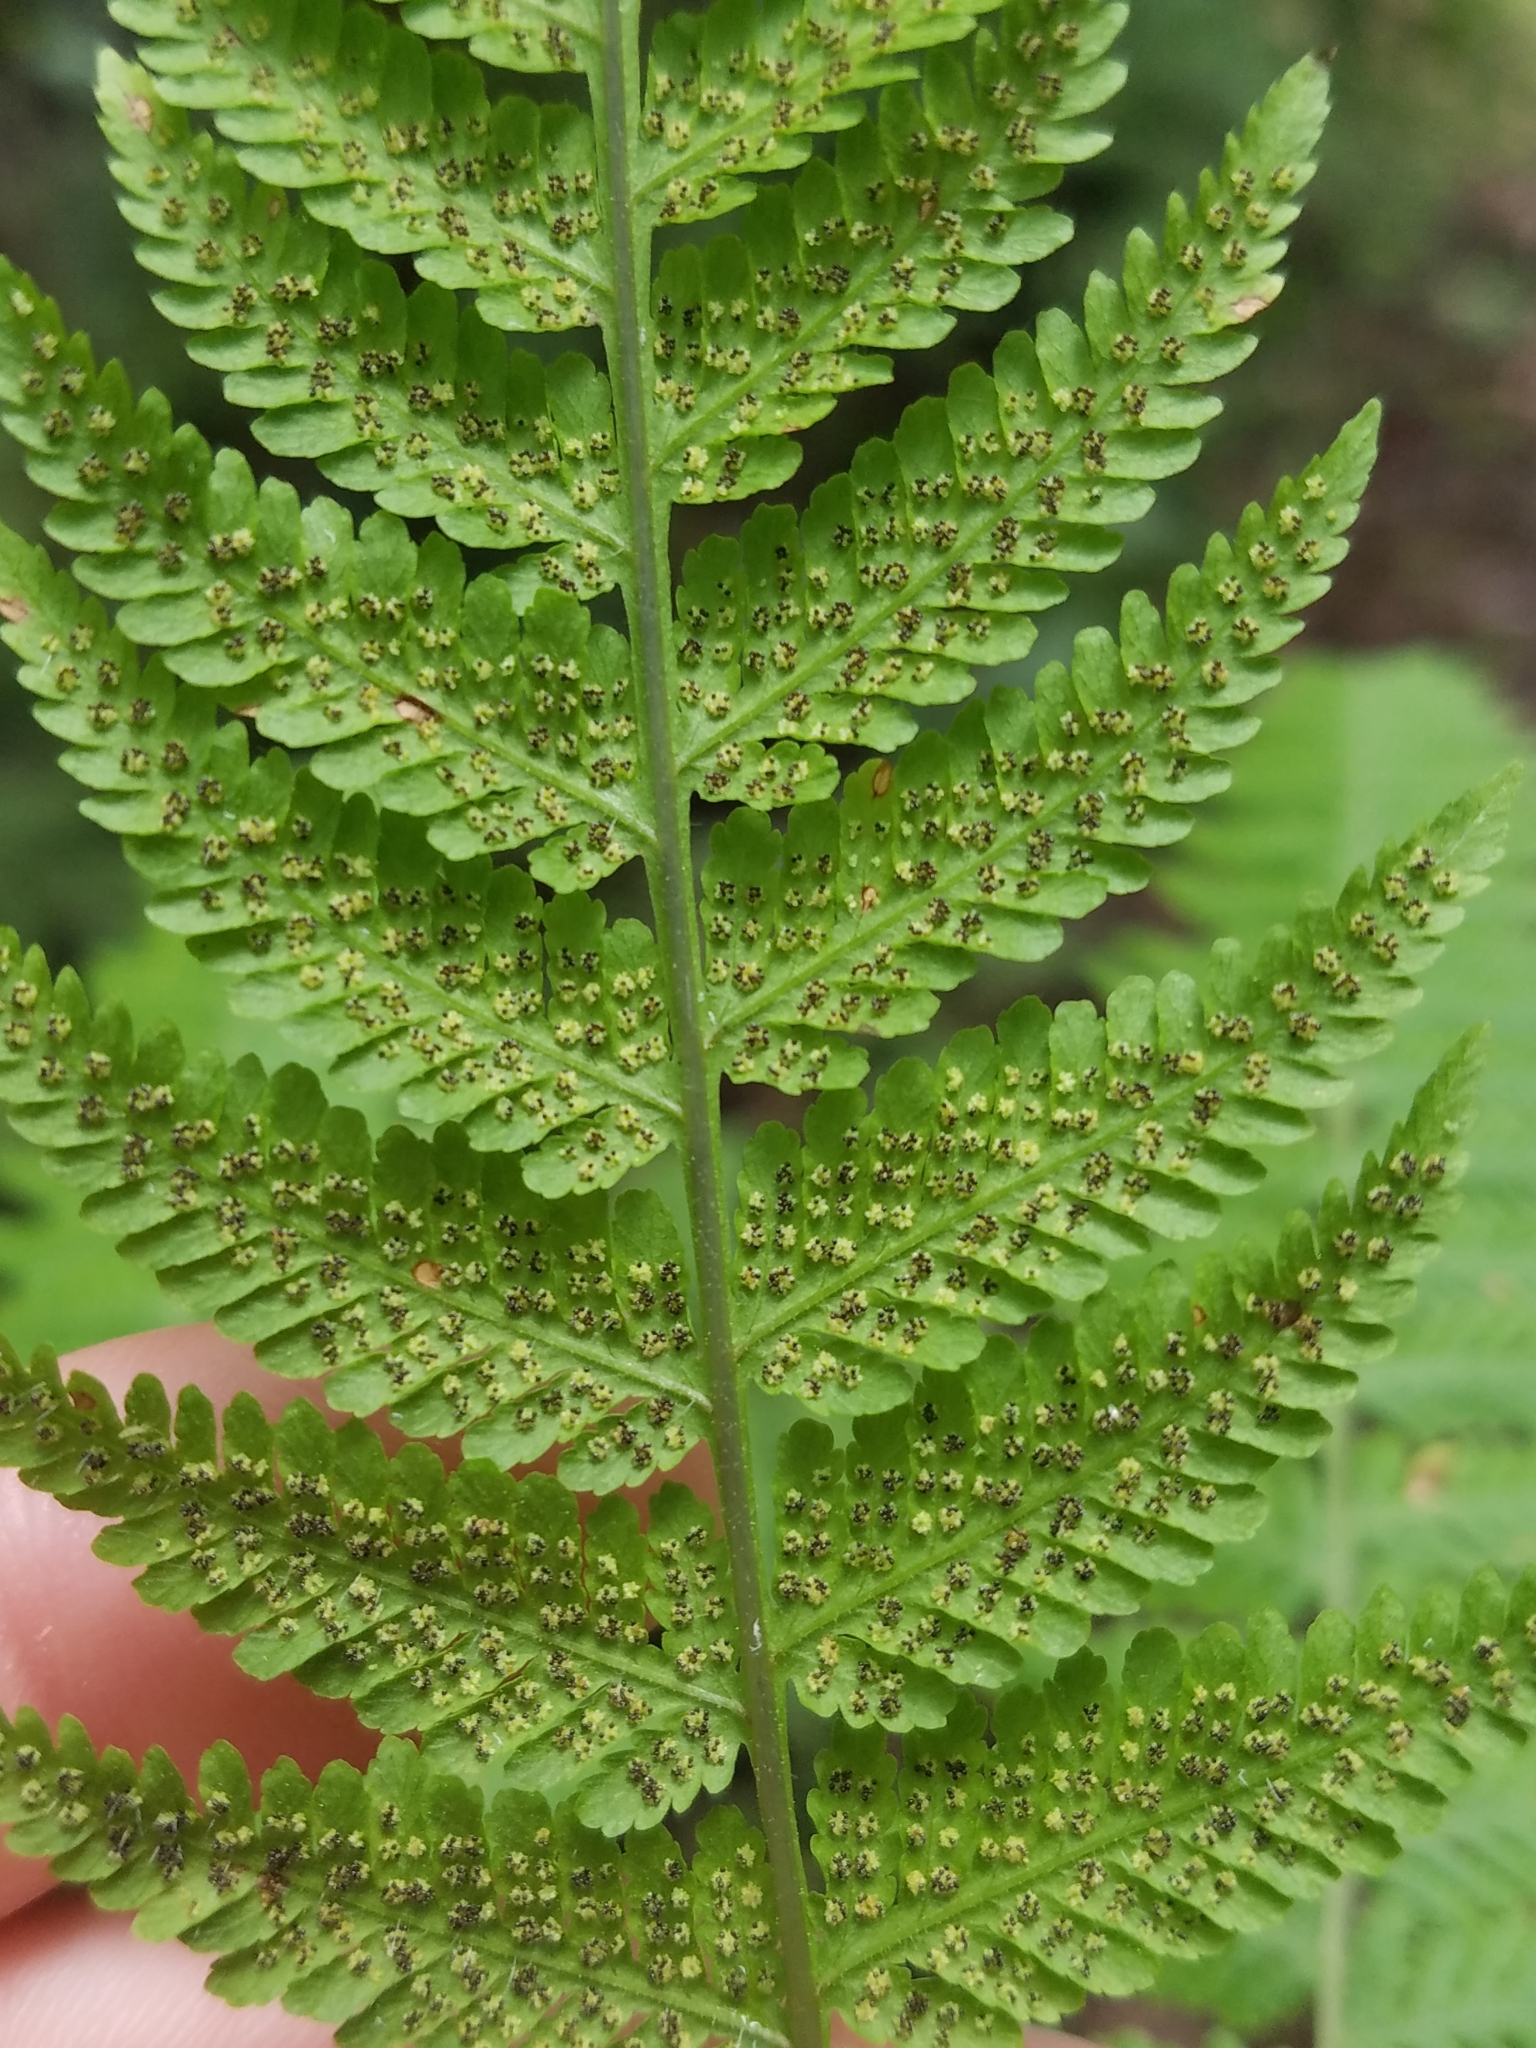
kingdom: Plantae
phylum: Tracheophyta
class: Polypodiopsida
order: Polypodiales
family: Thelypteridaceae
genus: Macrothelypteris
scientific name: Macrothelypteris torresiana
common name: Swordfern
